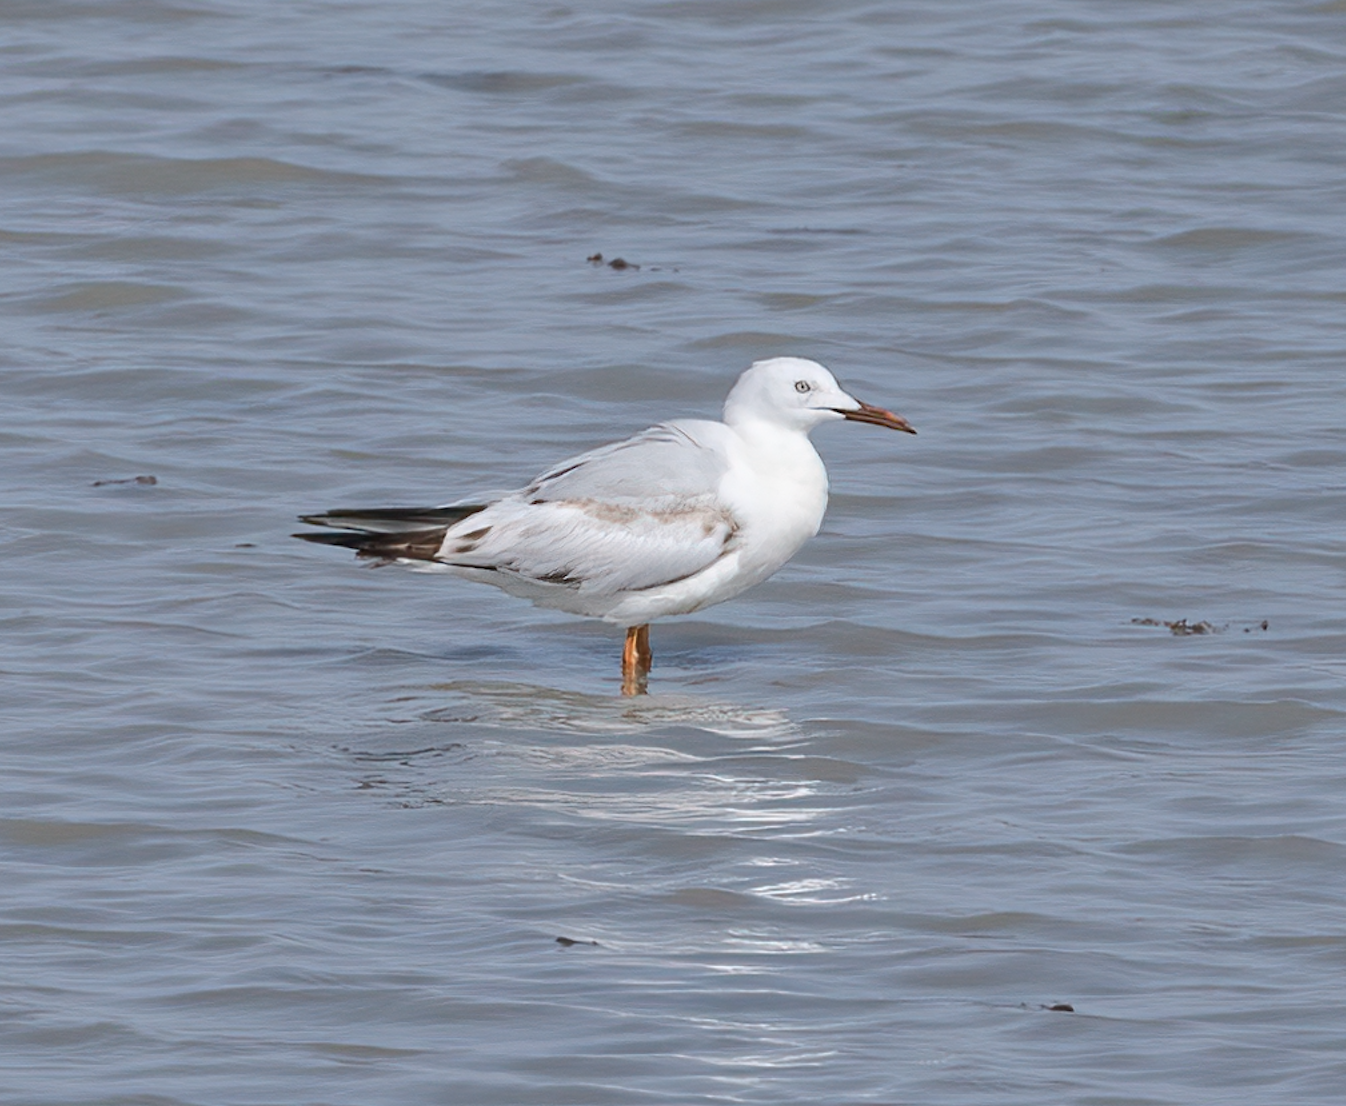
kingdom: Animalia
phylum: Chordata
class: Aves
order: Charadriiformes
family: Laridae
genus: Chroicocephalus
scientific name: Chroicocephalus genei
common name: Slender-billed gull
